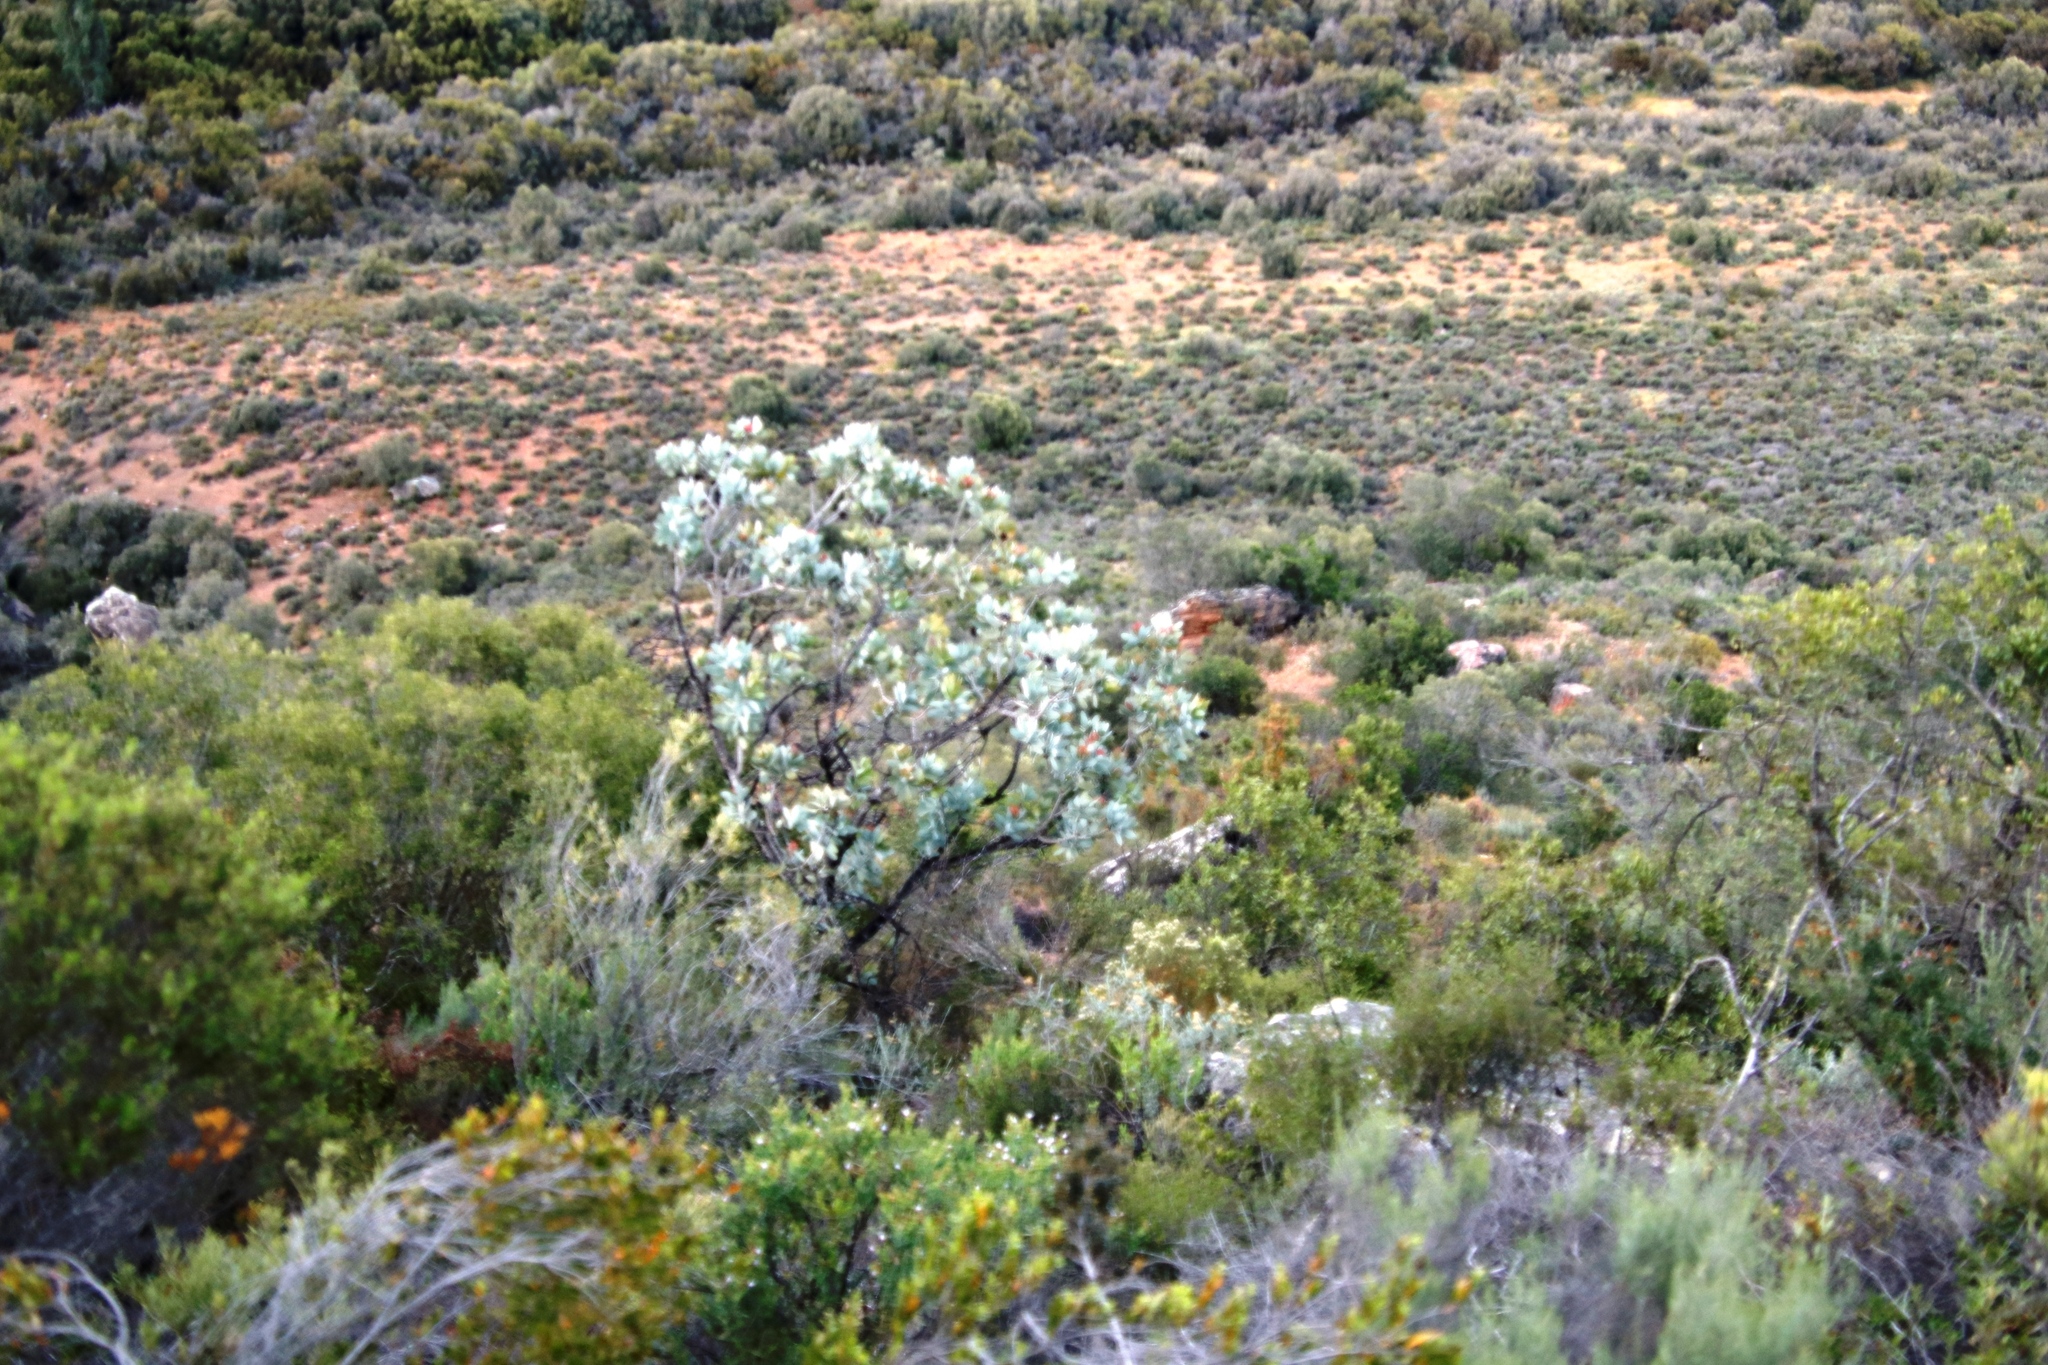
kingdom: Plantae
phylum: Tracheophyta
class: Magnoliopsida
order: Proteales
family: Proteaceae
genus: Protea
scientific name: Protea nitida
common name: Tree protea
